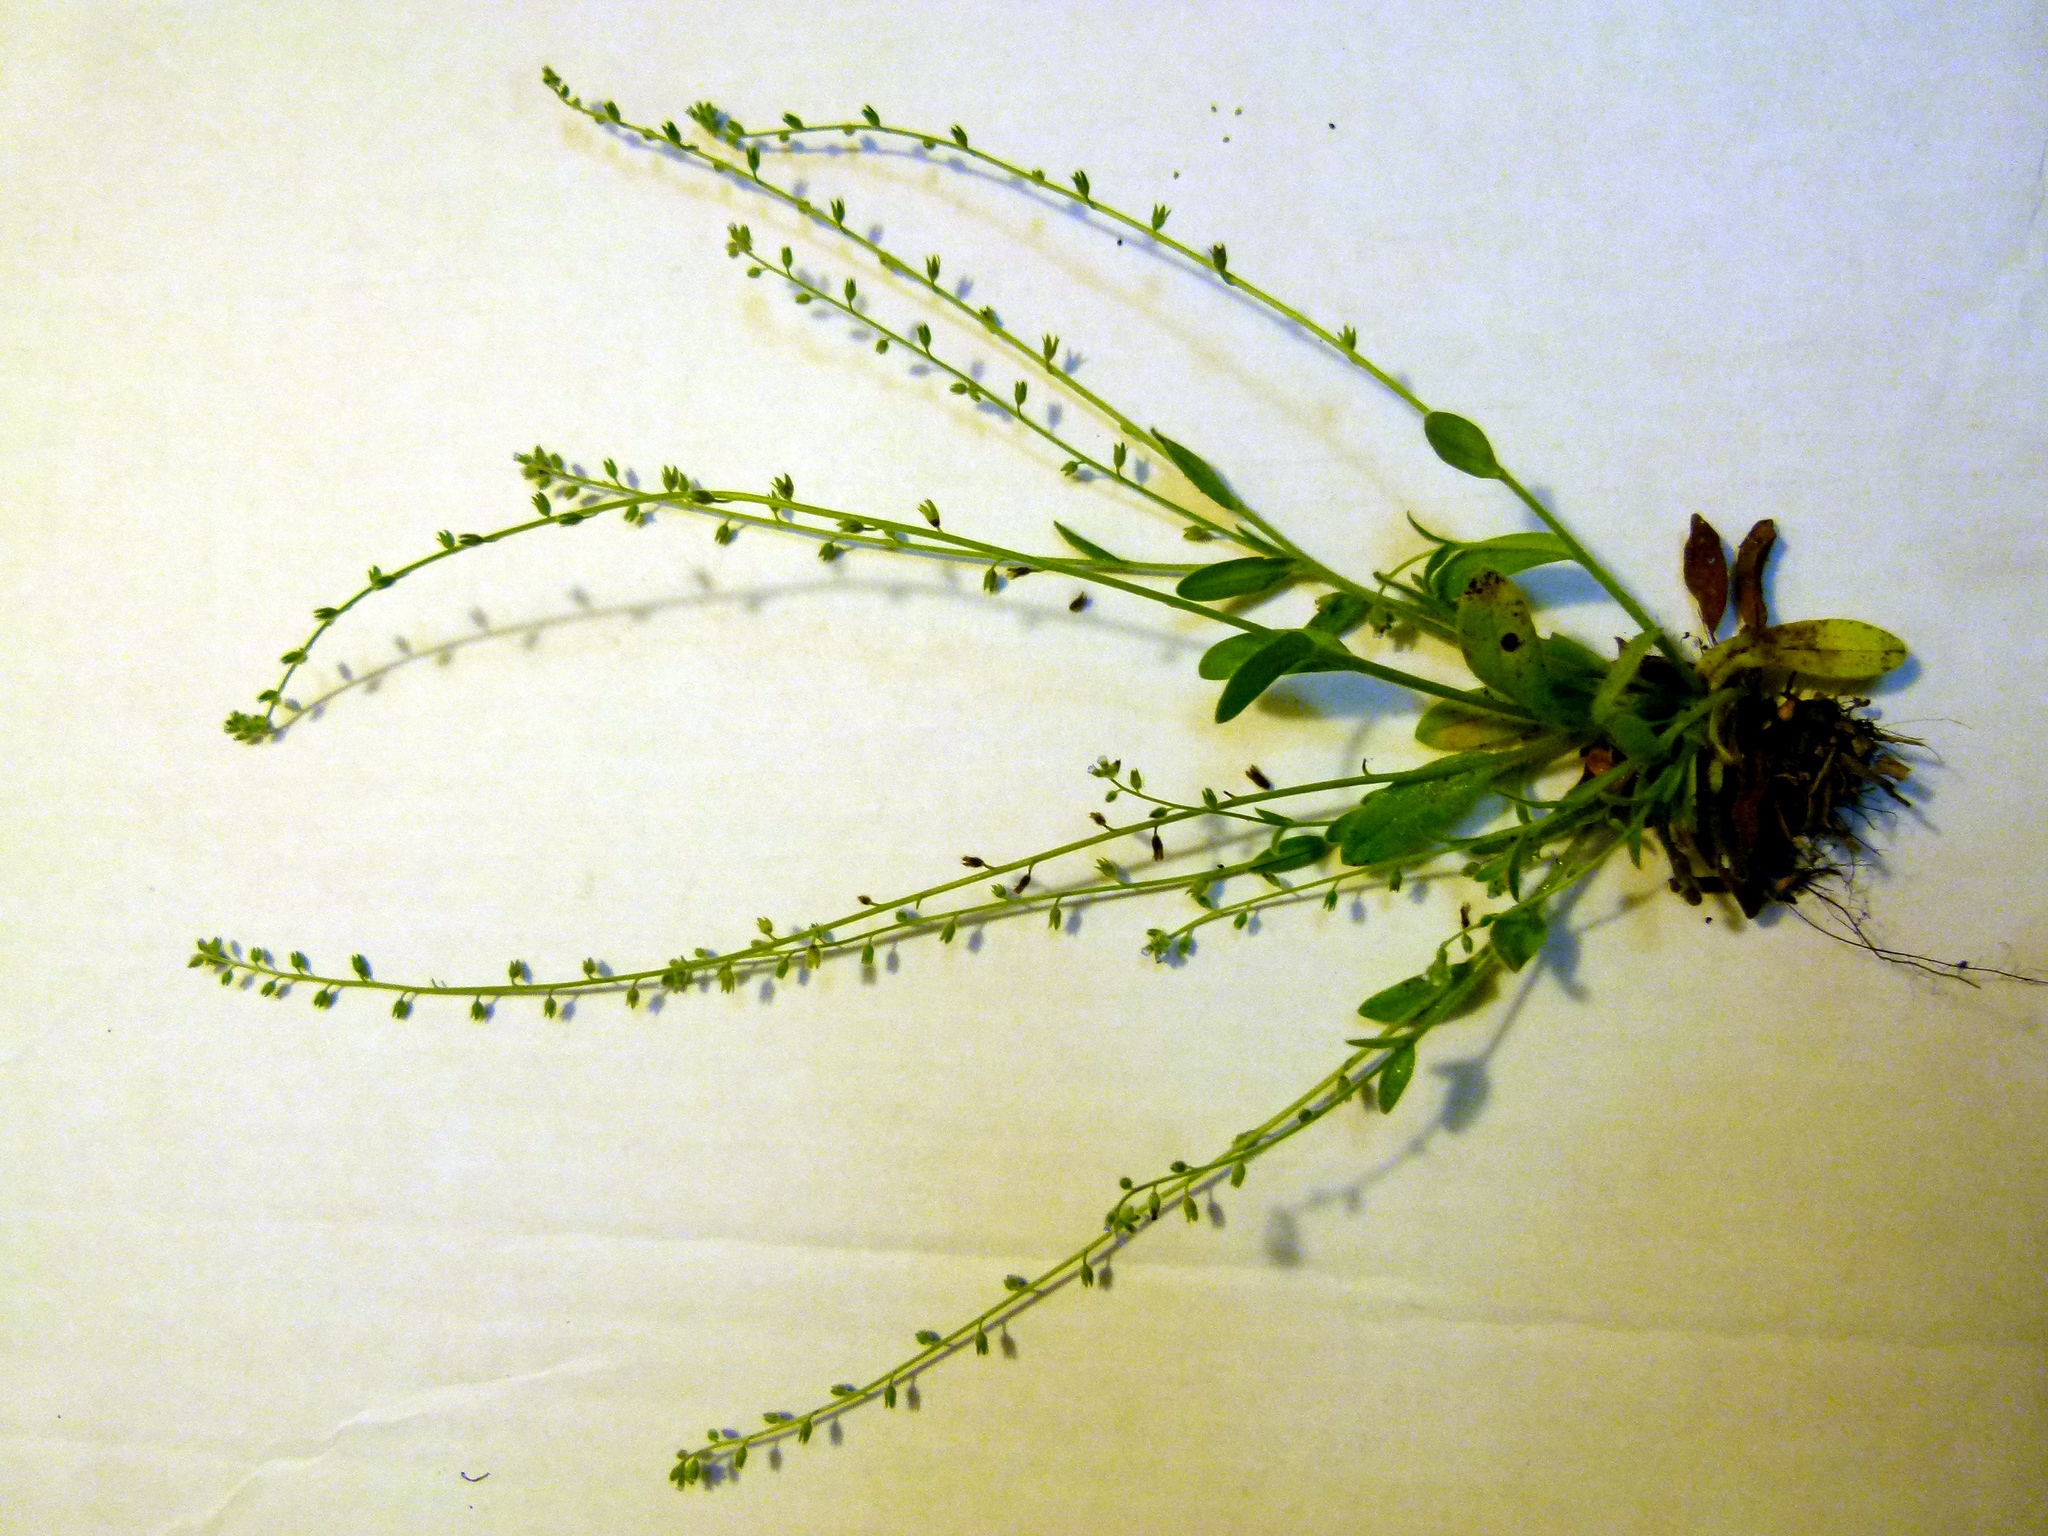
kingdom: Plantae
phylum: Tracheophyta
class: Magnoliopsida
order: Boraginales
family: Boraginaceae
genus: Myosotis
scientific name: Myosotis ramosissima
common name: Early forget-me-not
